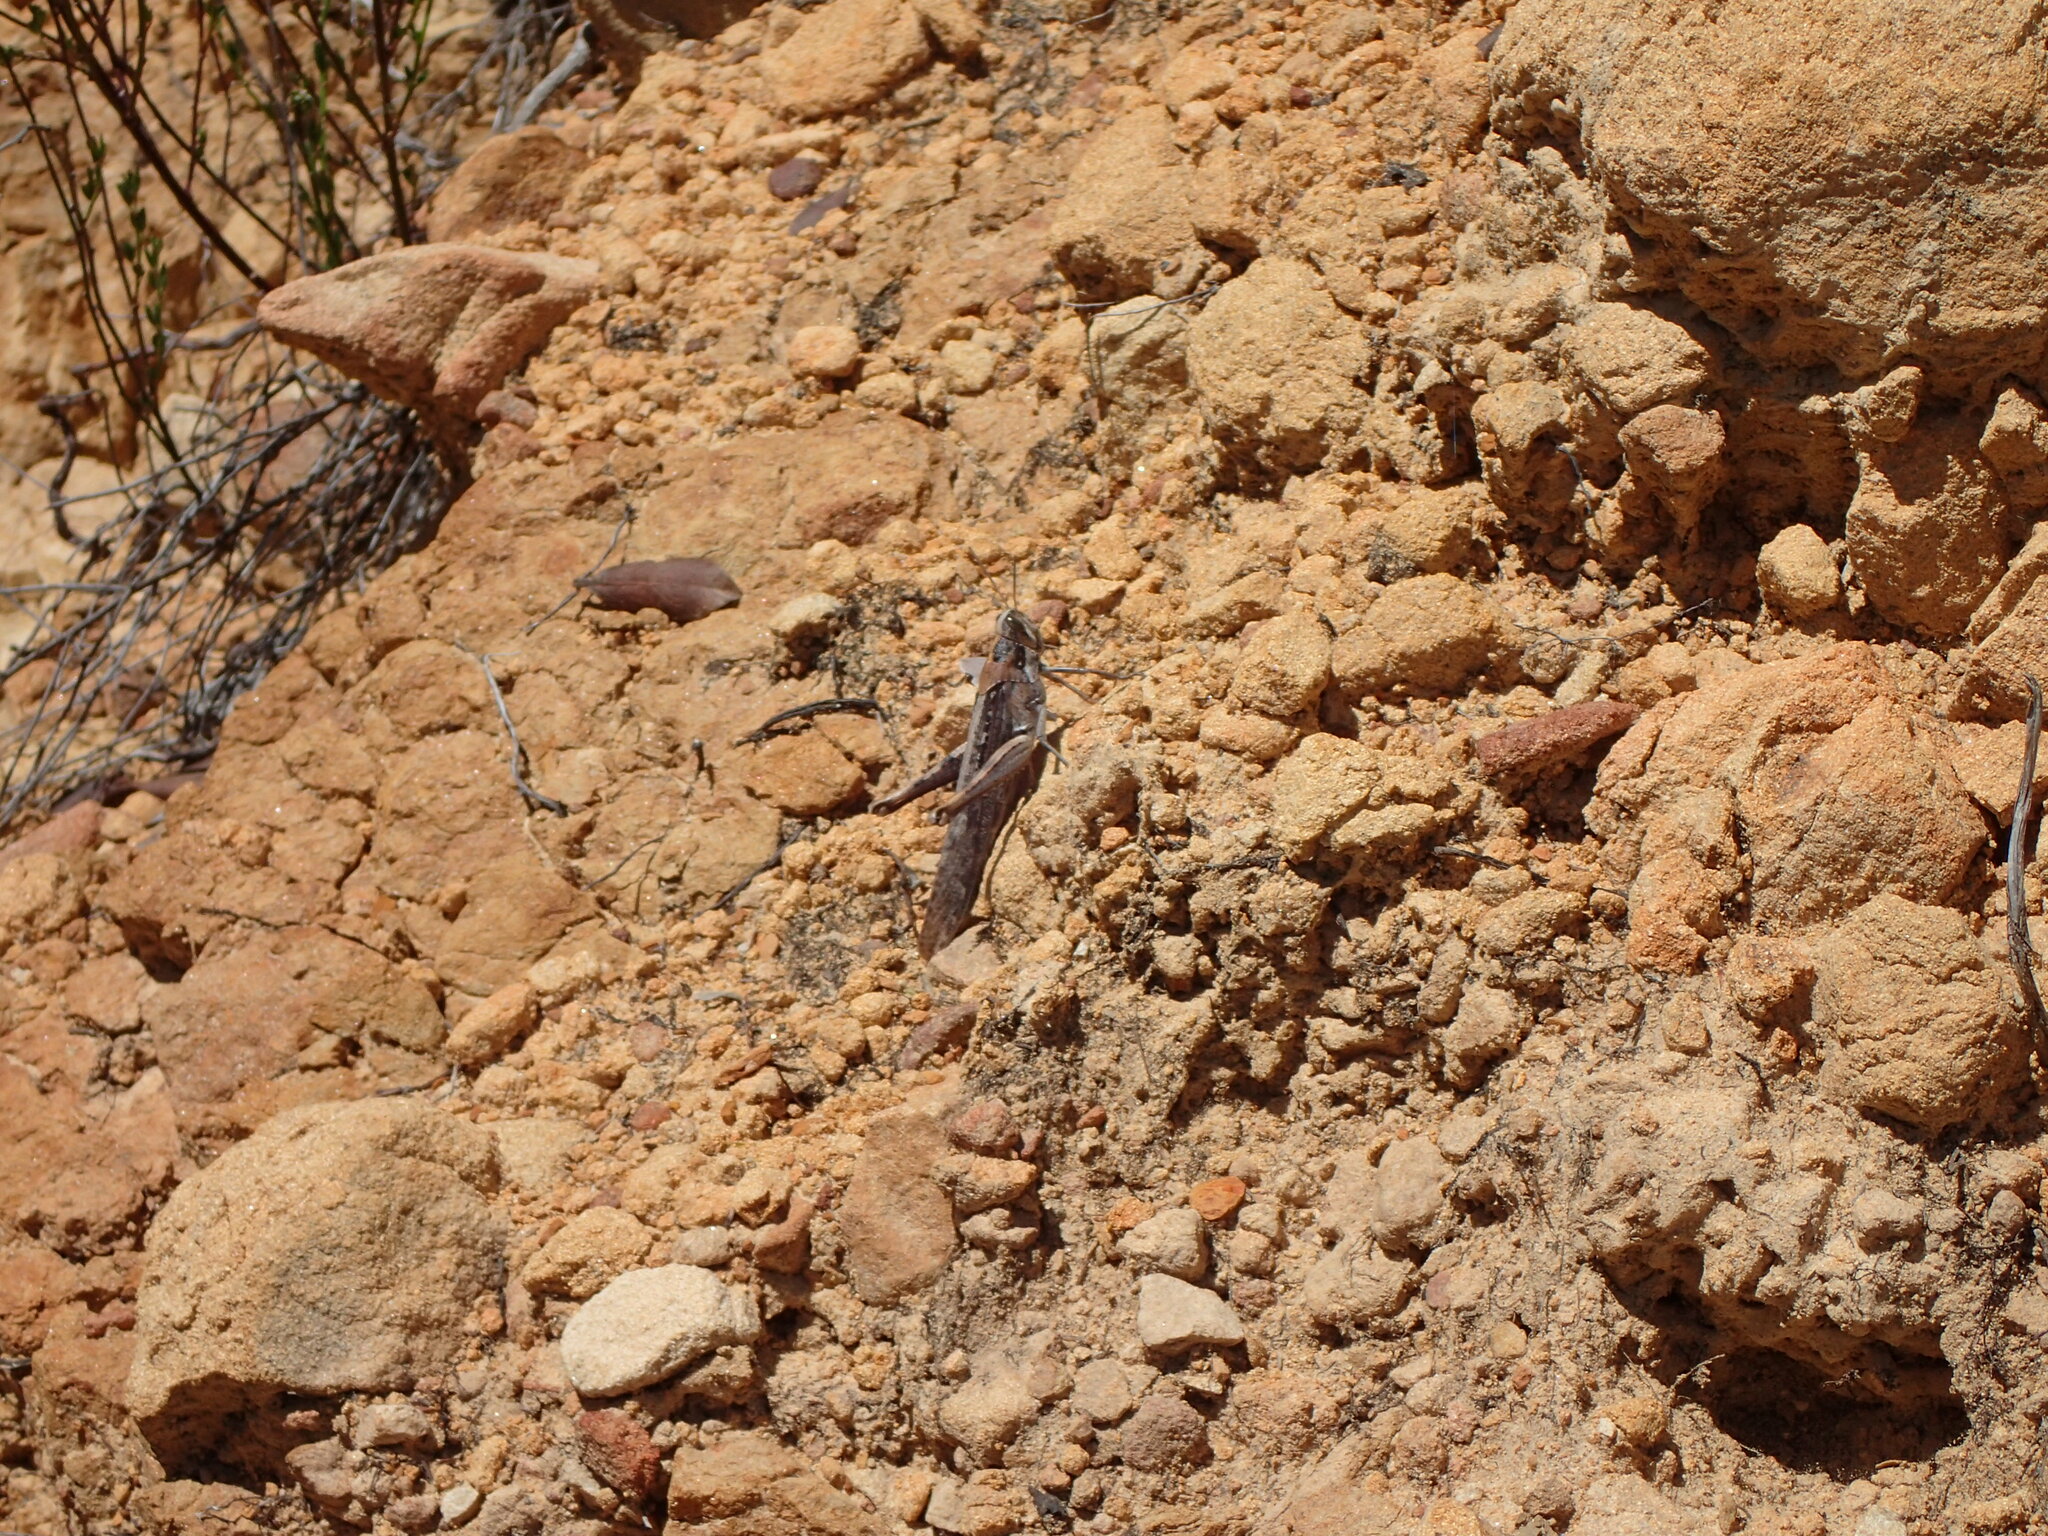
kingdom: Animalia
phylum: Arthropoda
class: Insecta
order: Orthoptera
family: Acrididae
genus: Schistocerca
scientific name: Schistocerca nitens
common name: Vagrant grasshopper
